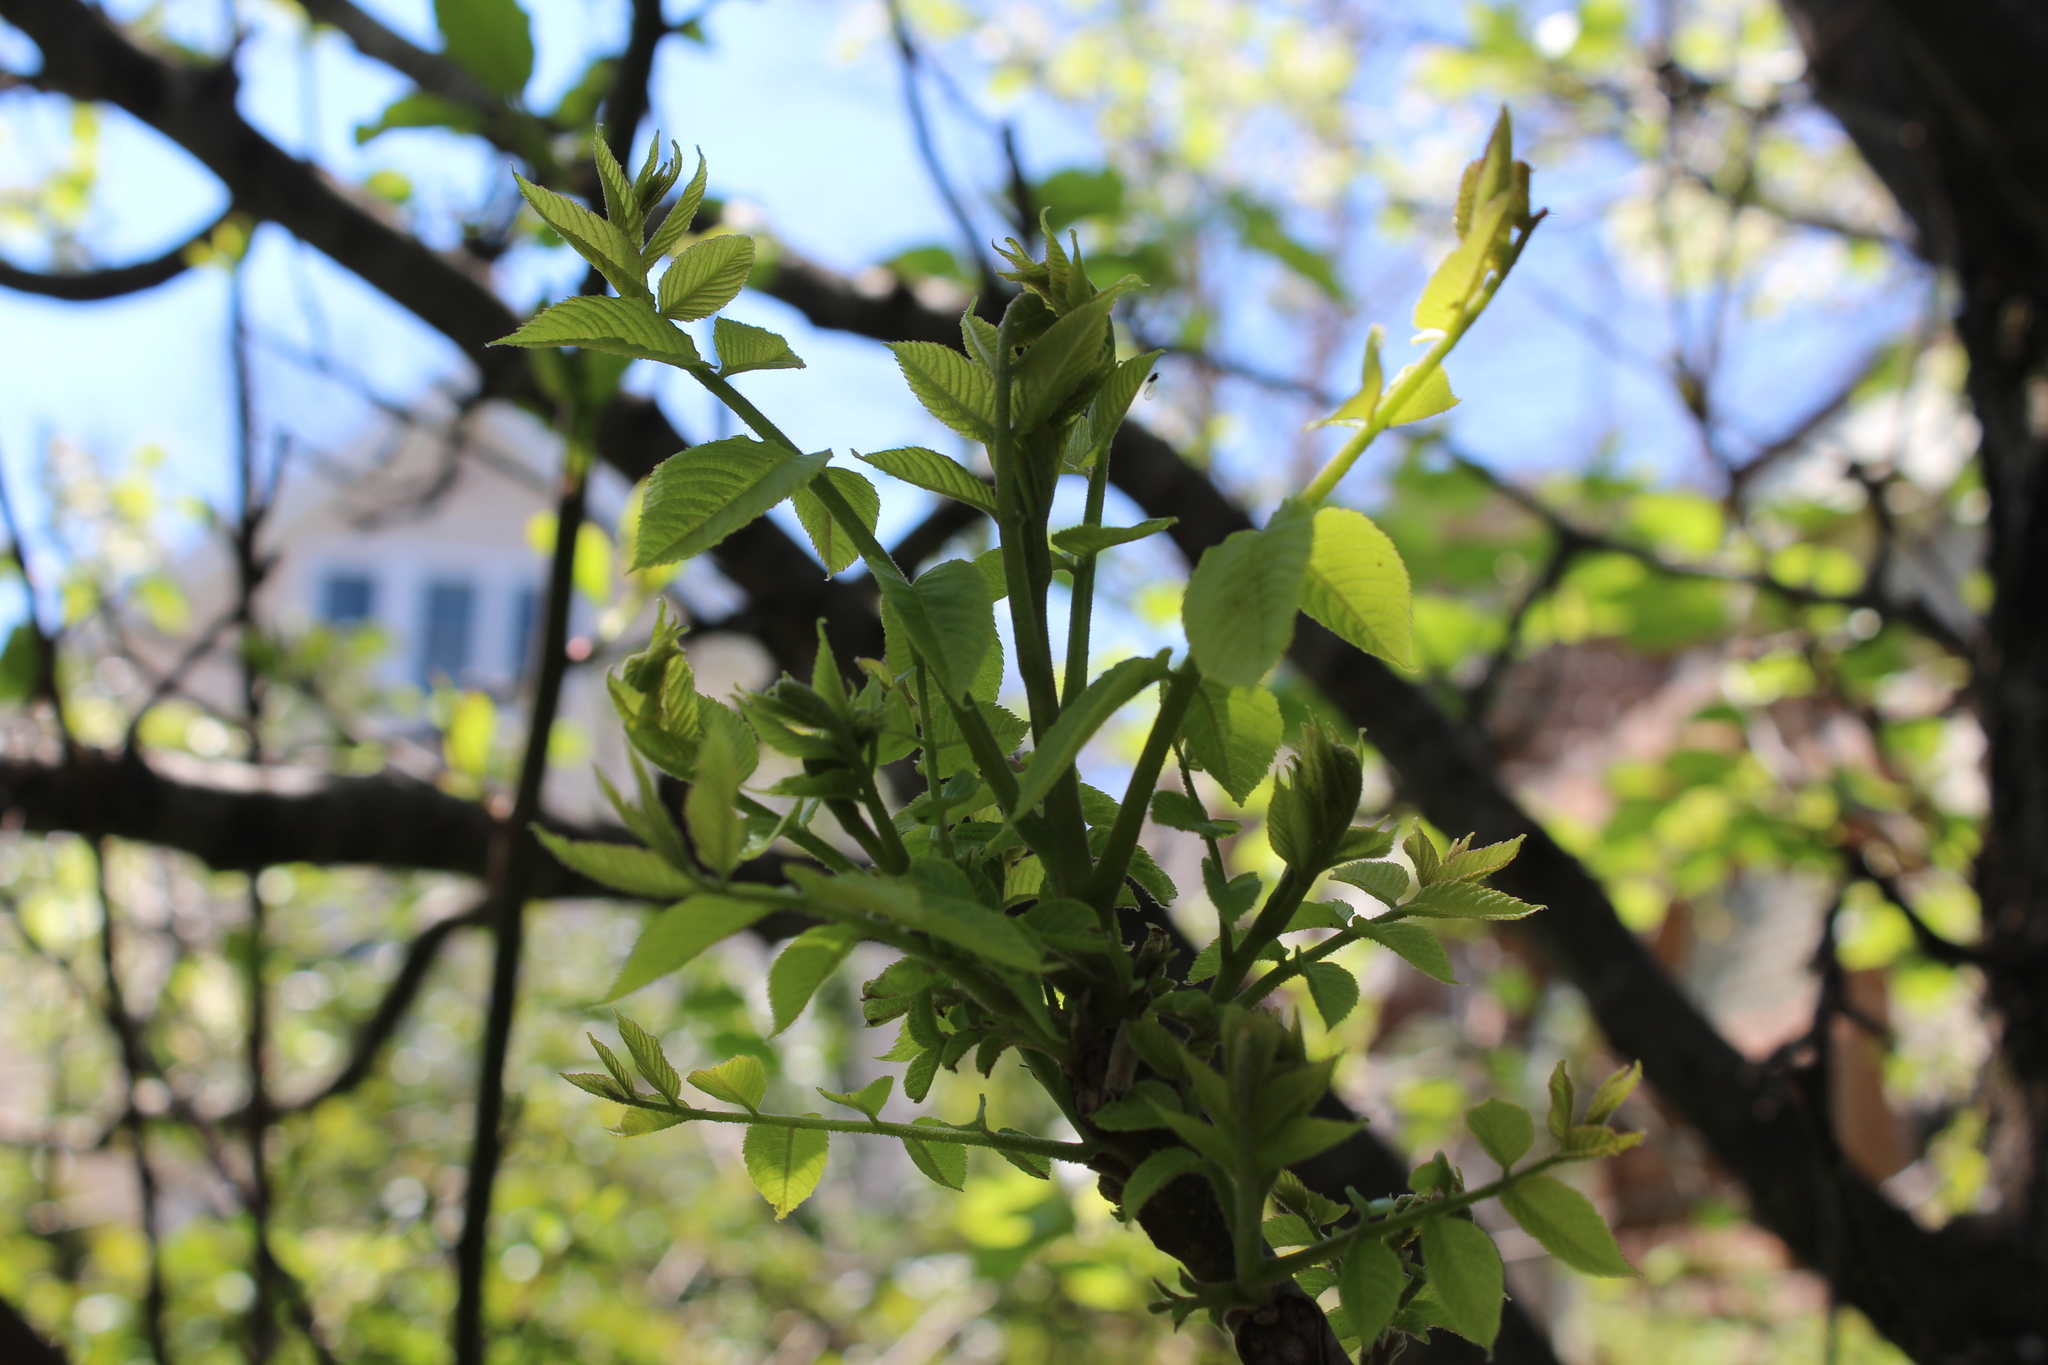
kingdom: Plantae
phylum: Tracheophyta
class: Magnoliopsida
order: Fagales
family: Juglandaceae
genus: Juglans
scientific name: Juglans nigra
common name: Black walnut
